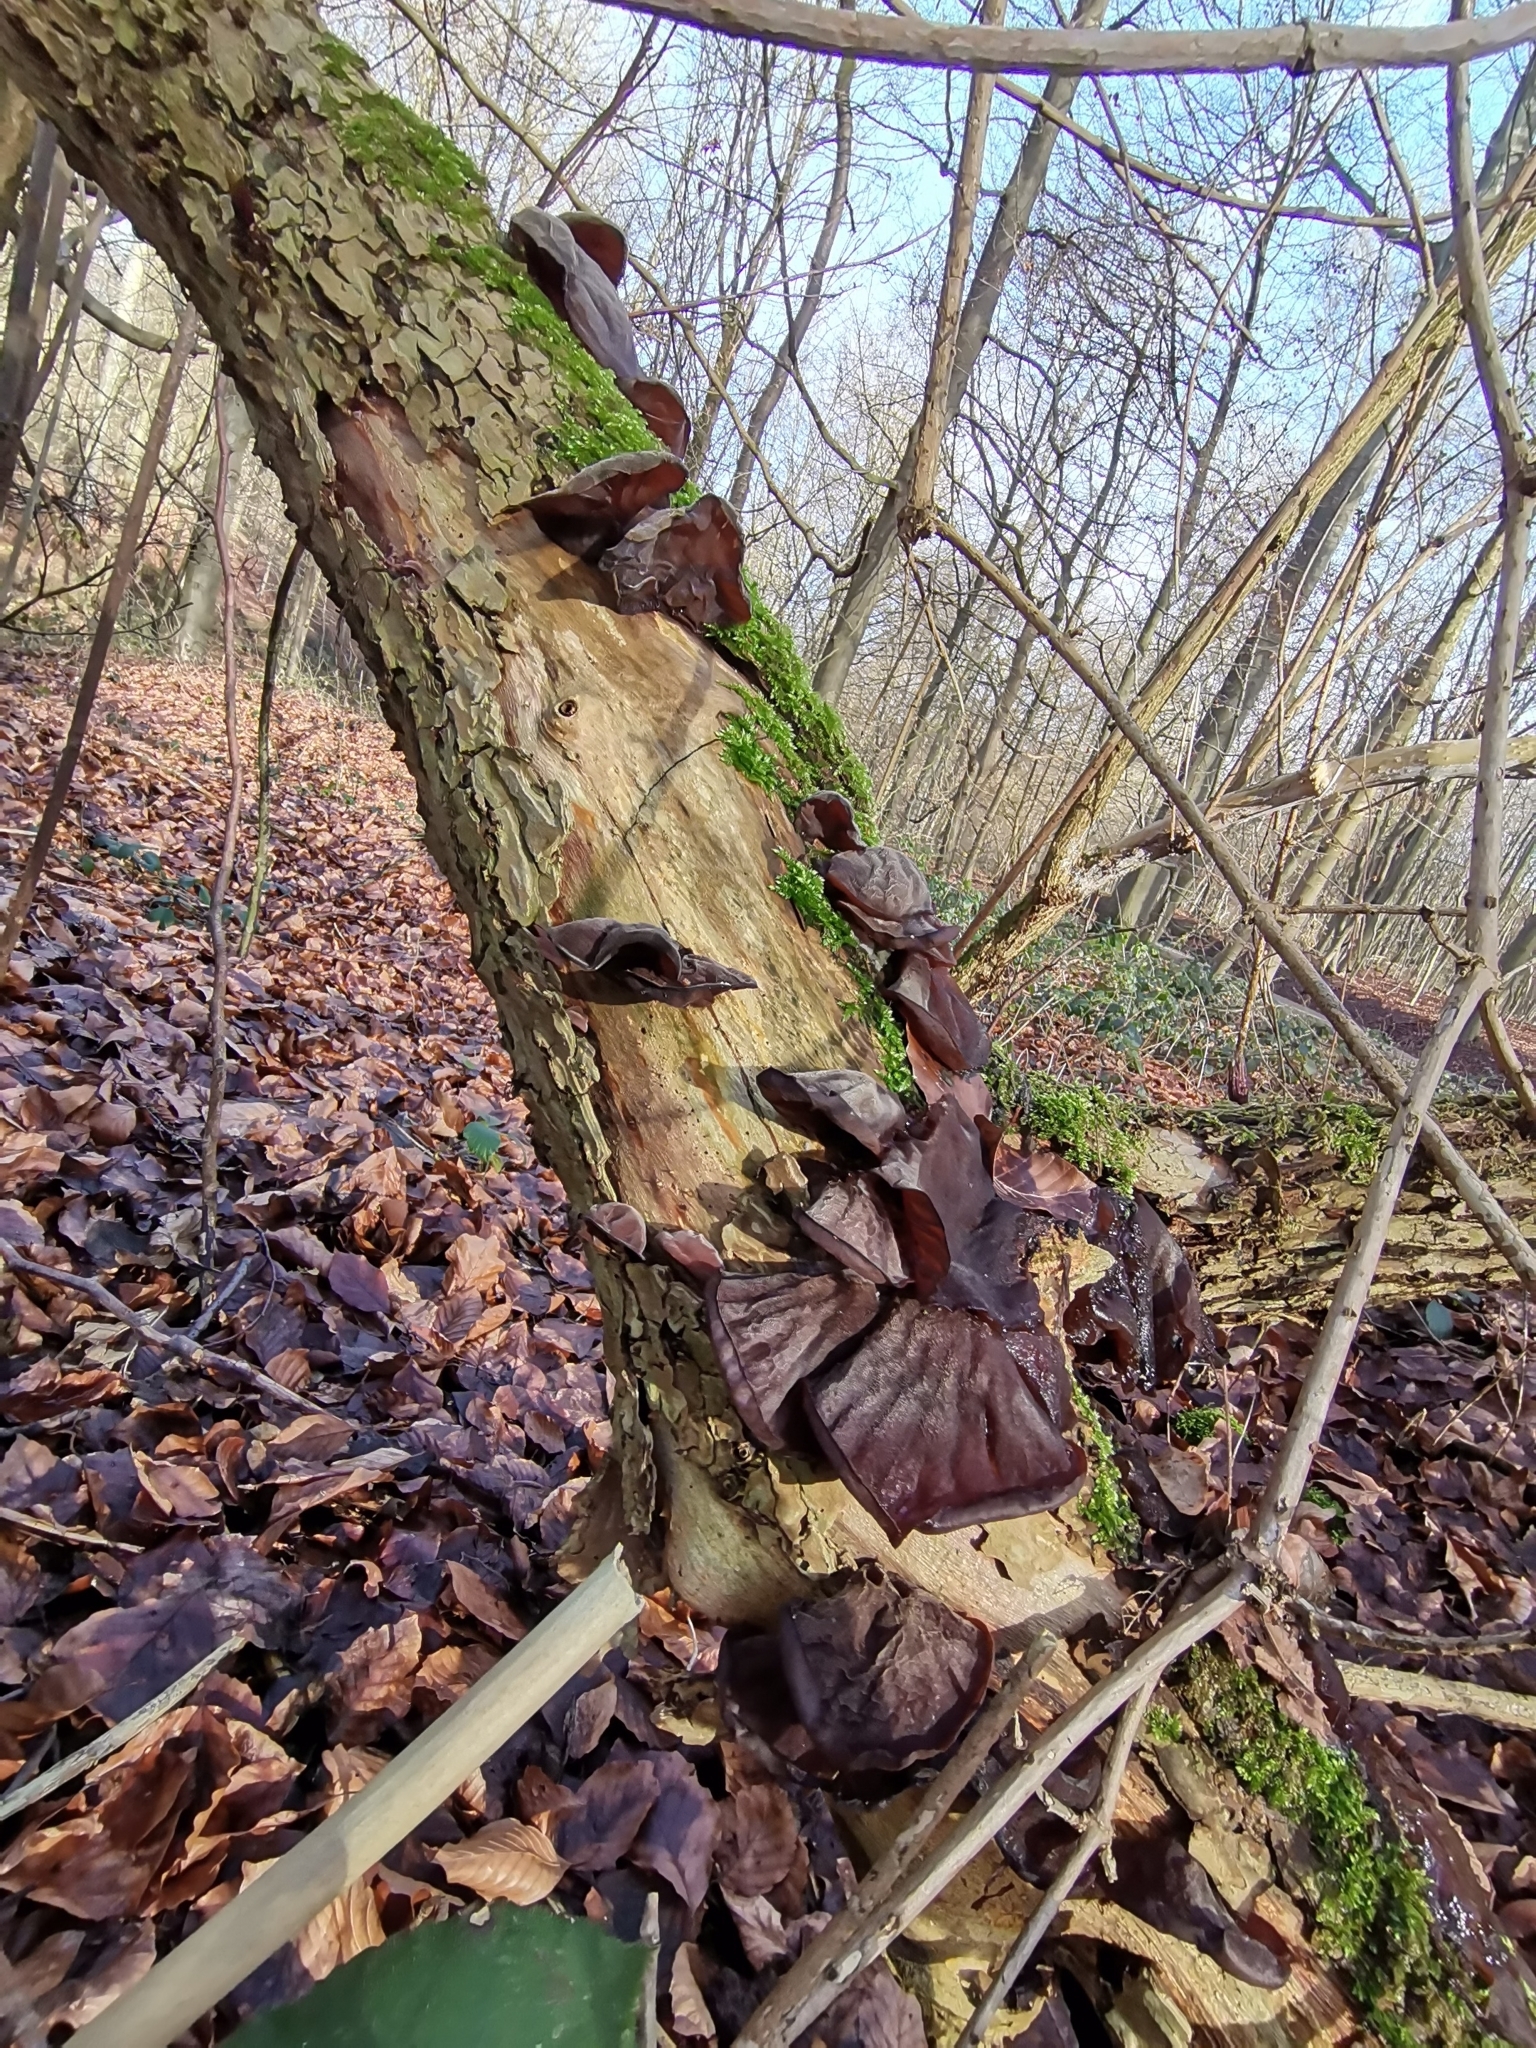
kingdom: Fungi
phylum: Basidiomycota
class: Agaricomycetes
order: Auriculariales
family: Auriculariaceae
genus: Auricularia
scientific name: Auricularia auricula-judae
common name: Jelly ear
